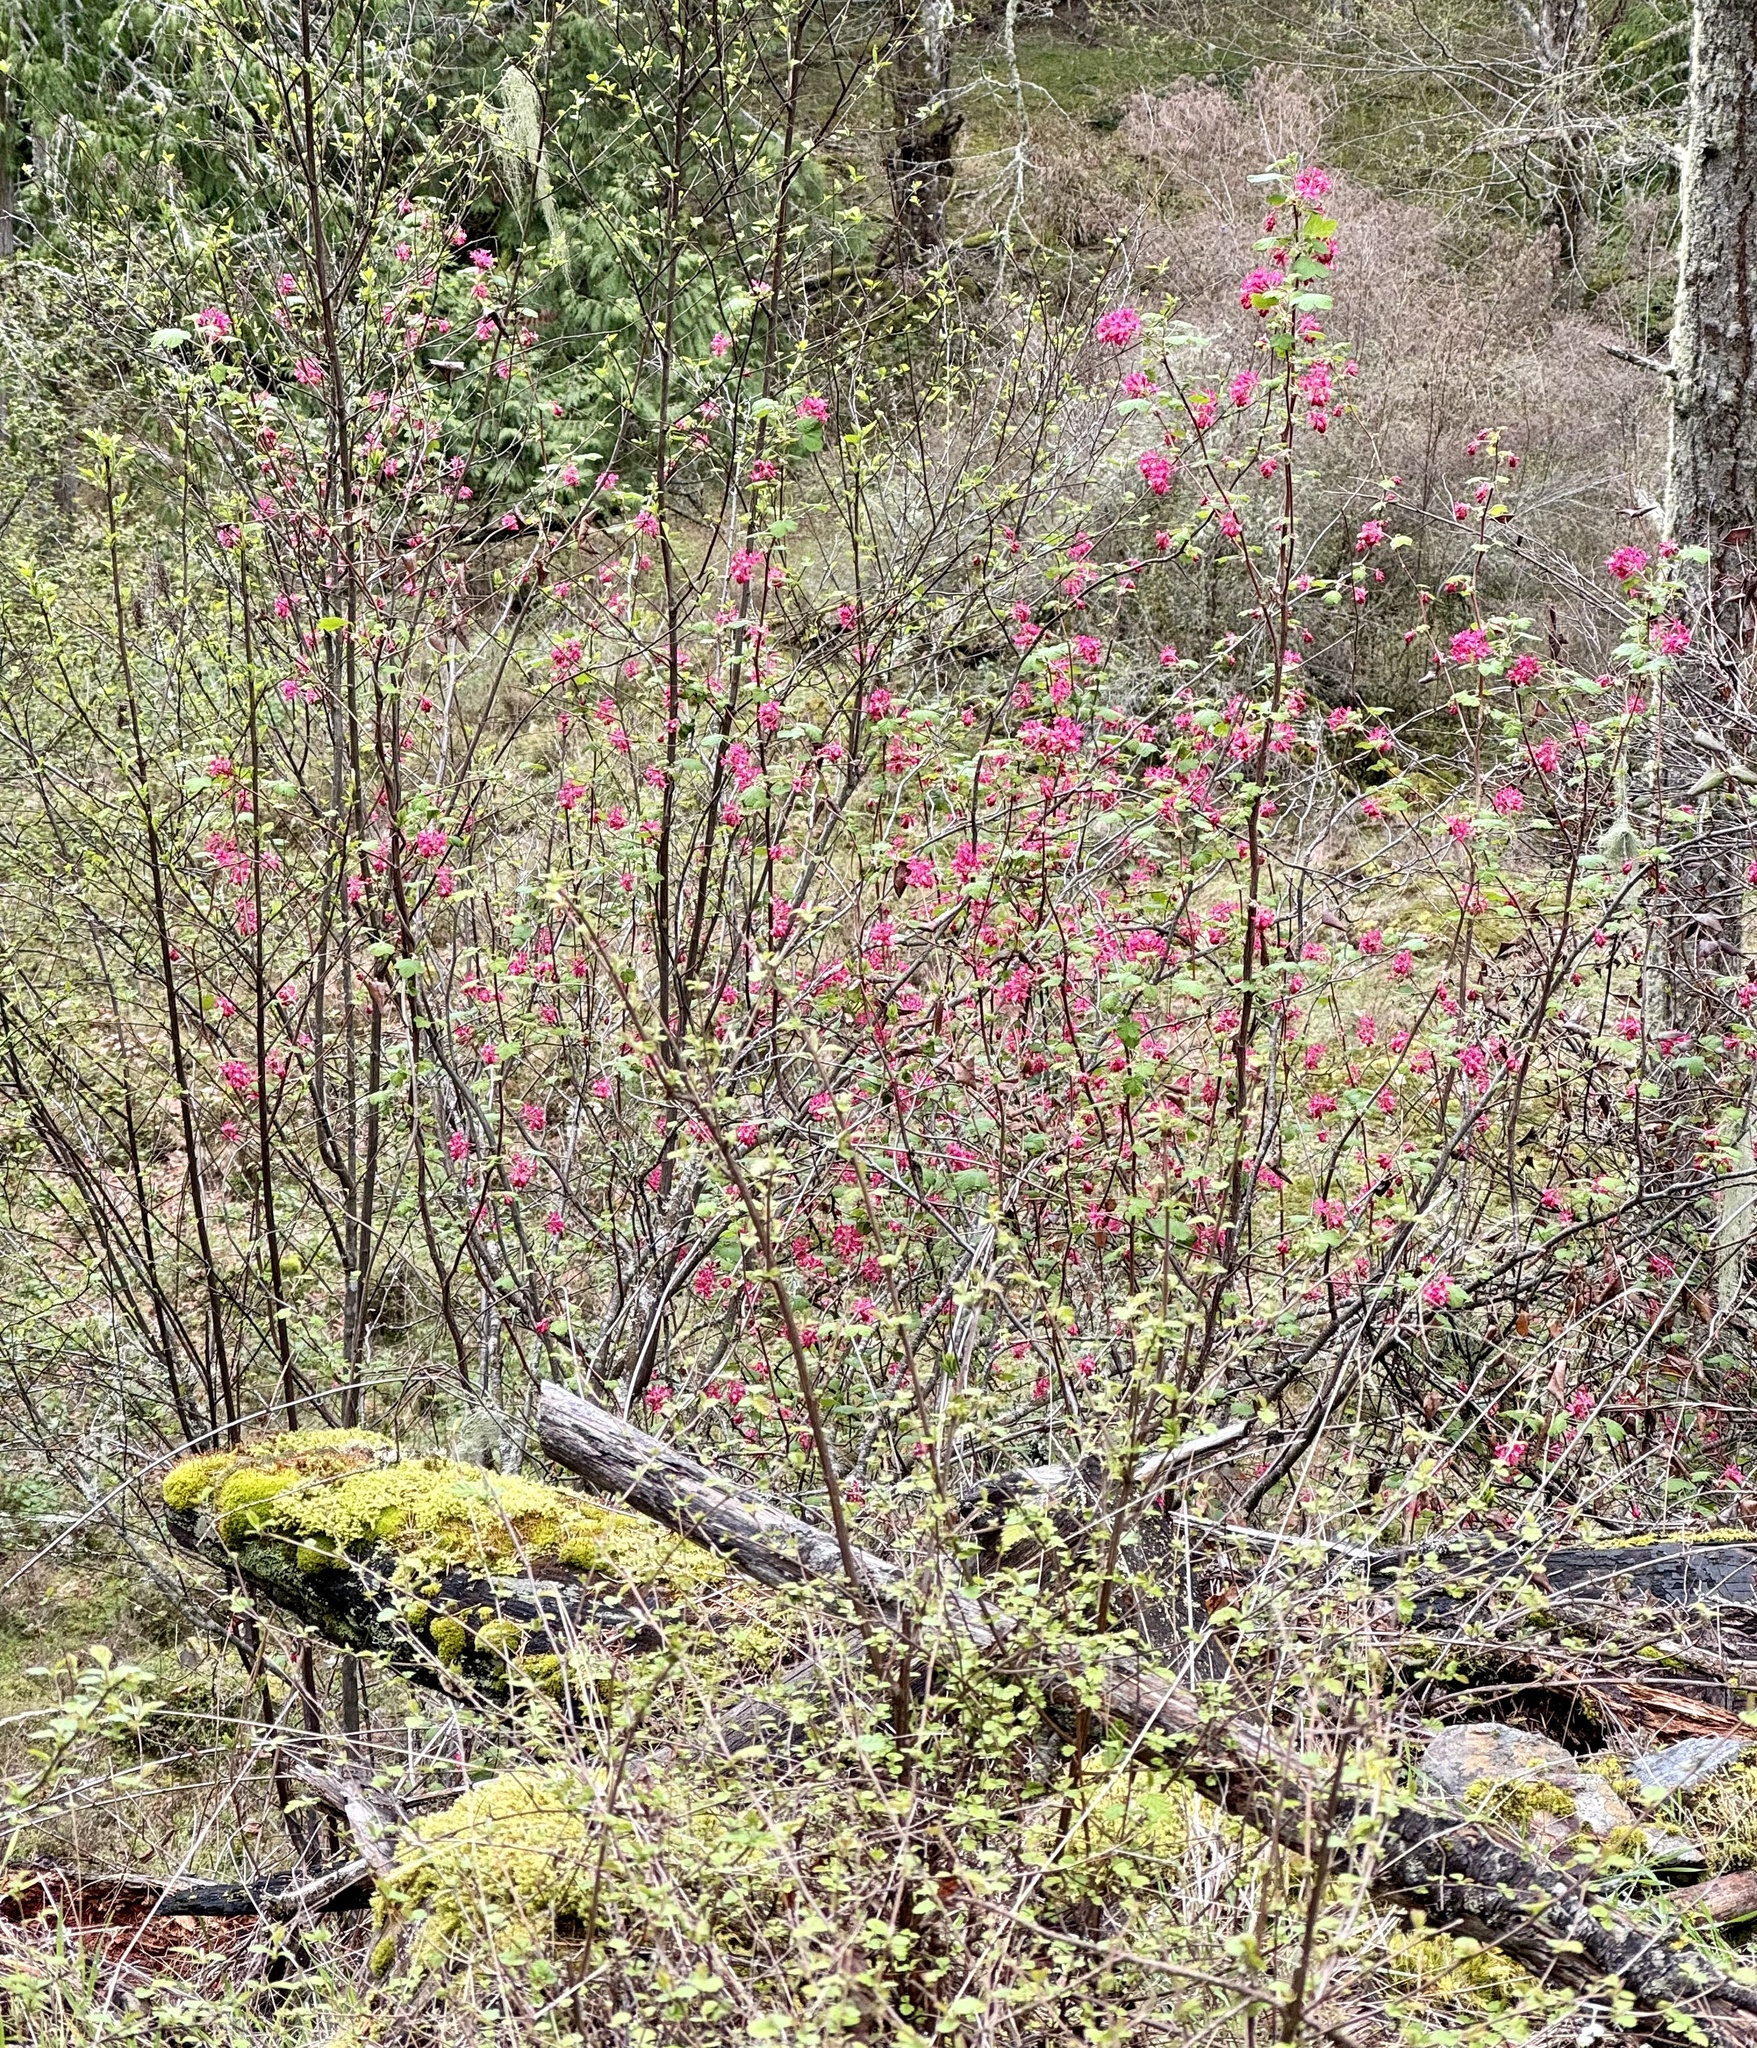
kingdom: Plantae
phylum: Tracheophyta
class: Magnoliopsida
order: Saxifragales
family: Grossulariaceae
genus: Ribes
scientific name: Ribes sanguineum
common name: Flowering currant
